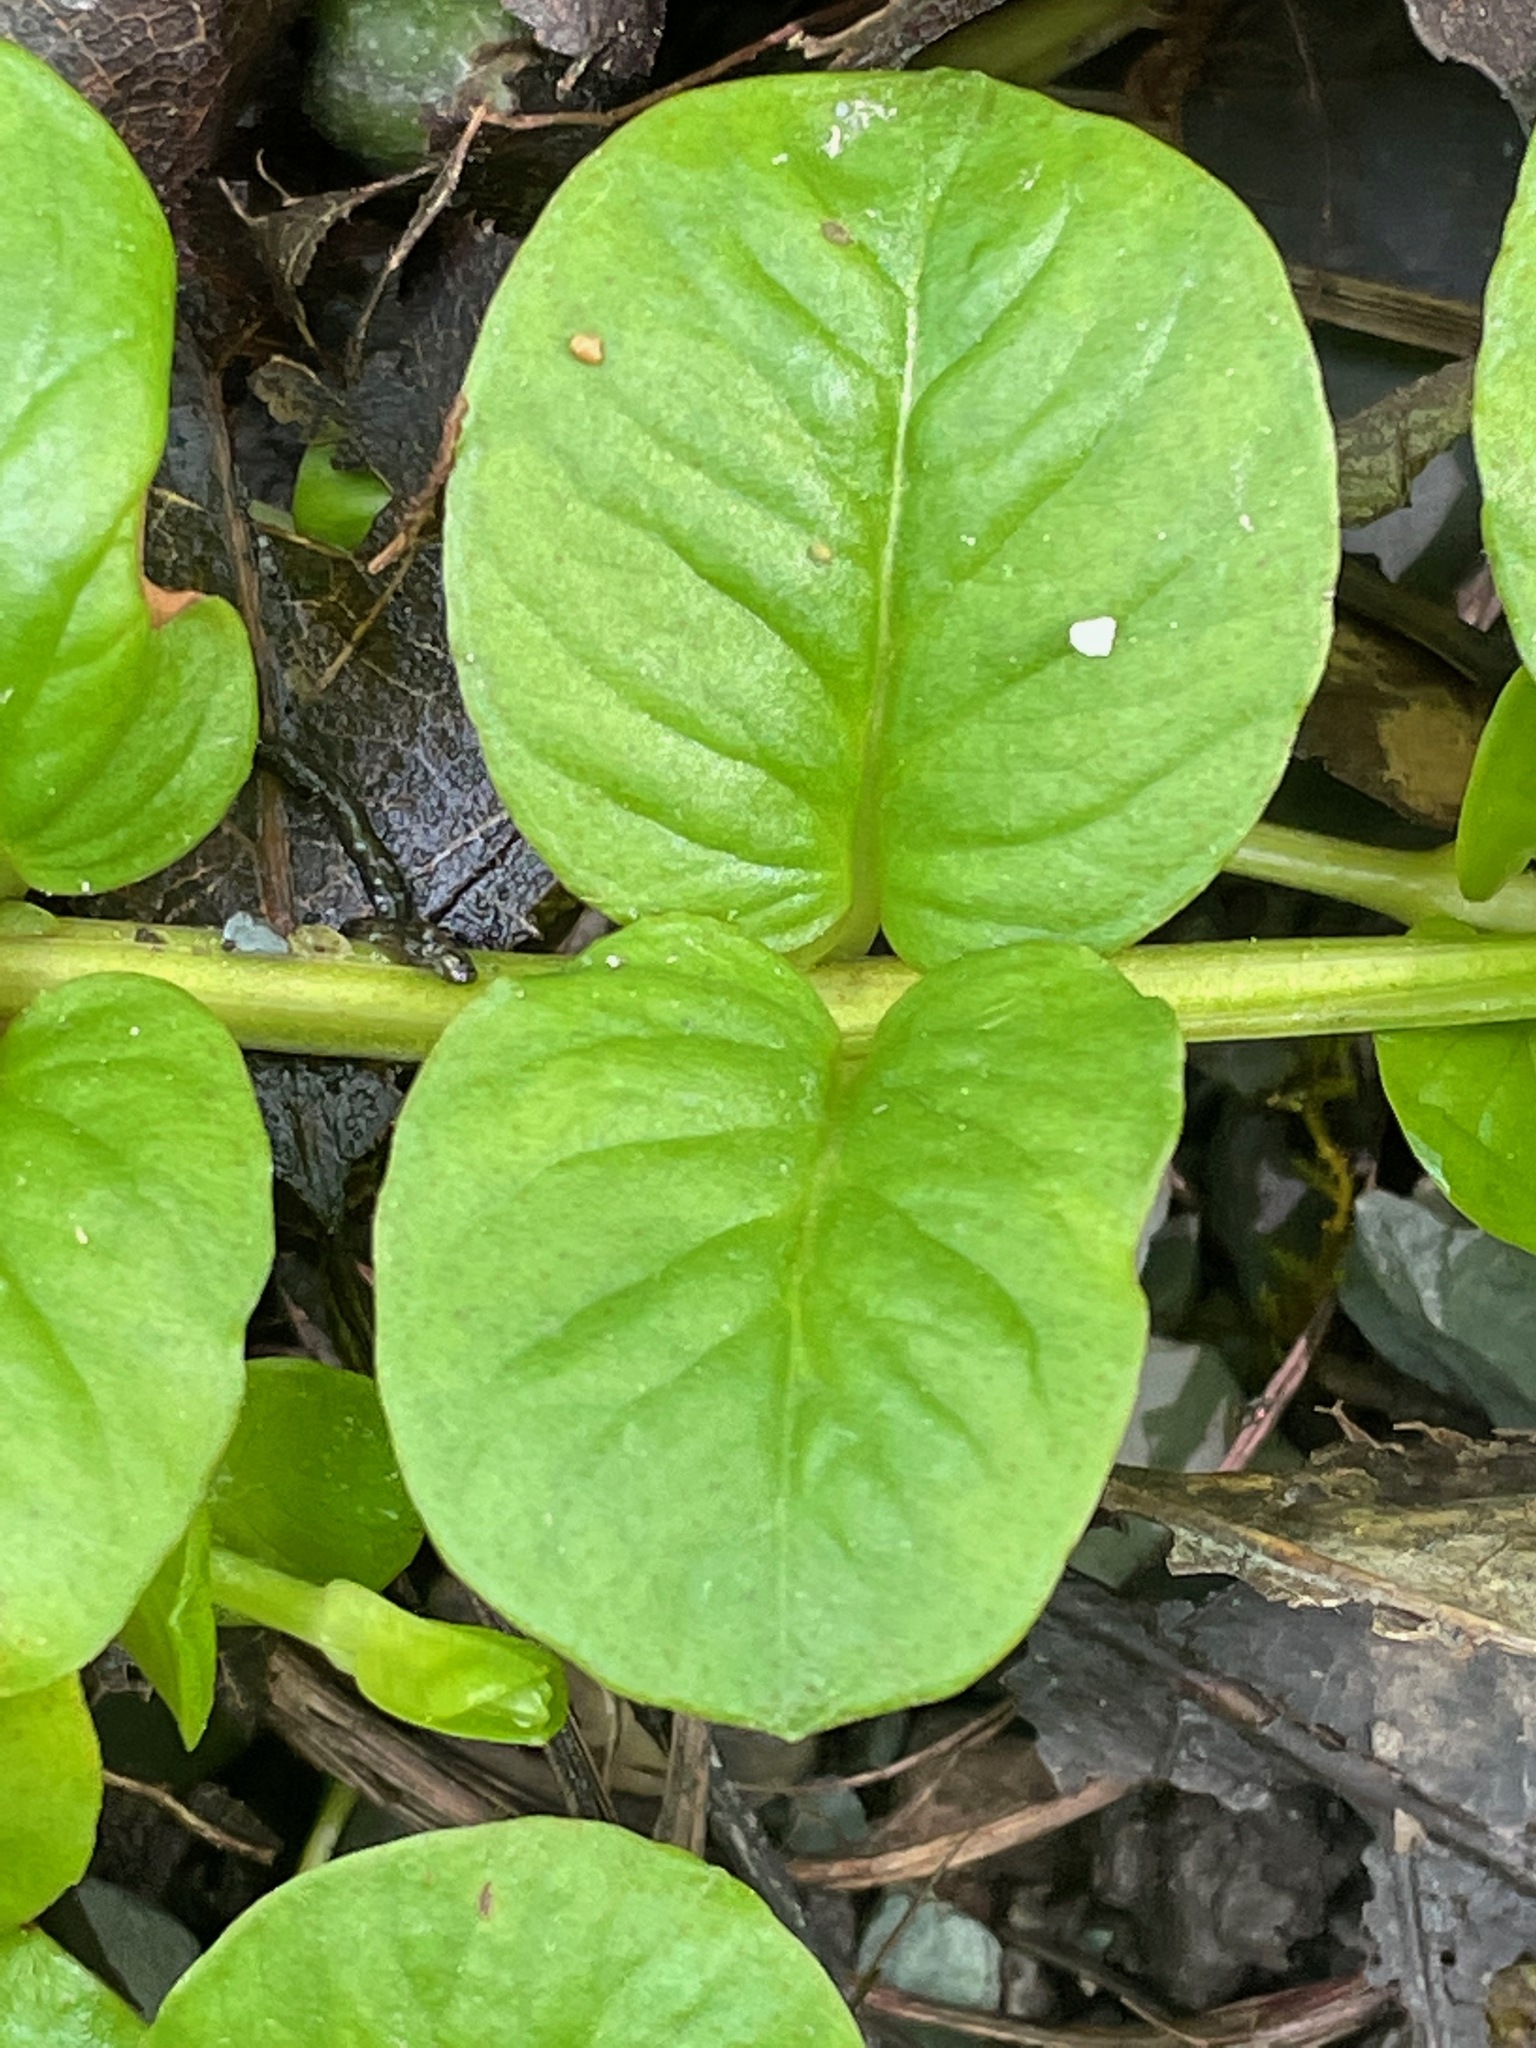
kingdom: Plantae
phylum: Tracheophyta
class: Magnoliopsida
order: Ericales
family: Primulaceae
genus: Lysimachia
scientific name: Lysimachia nummularia
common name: Moneywort
